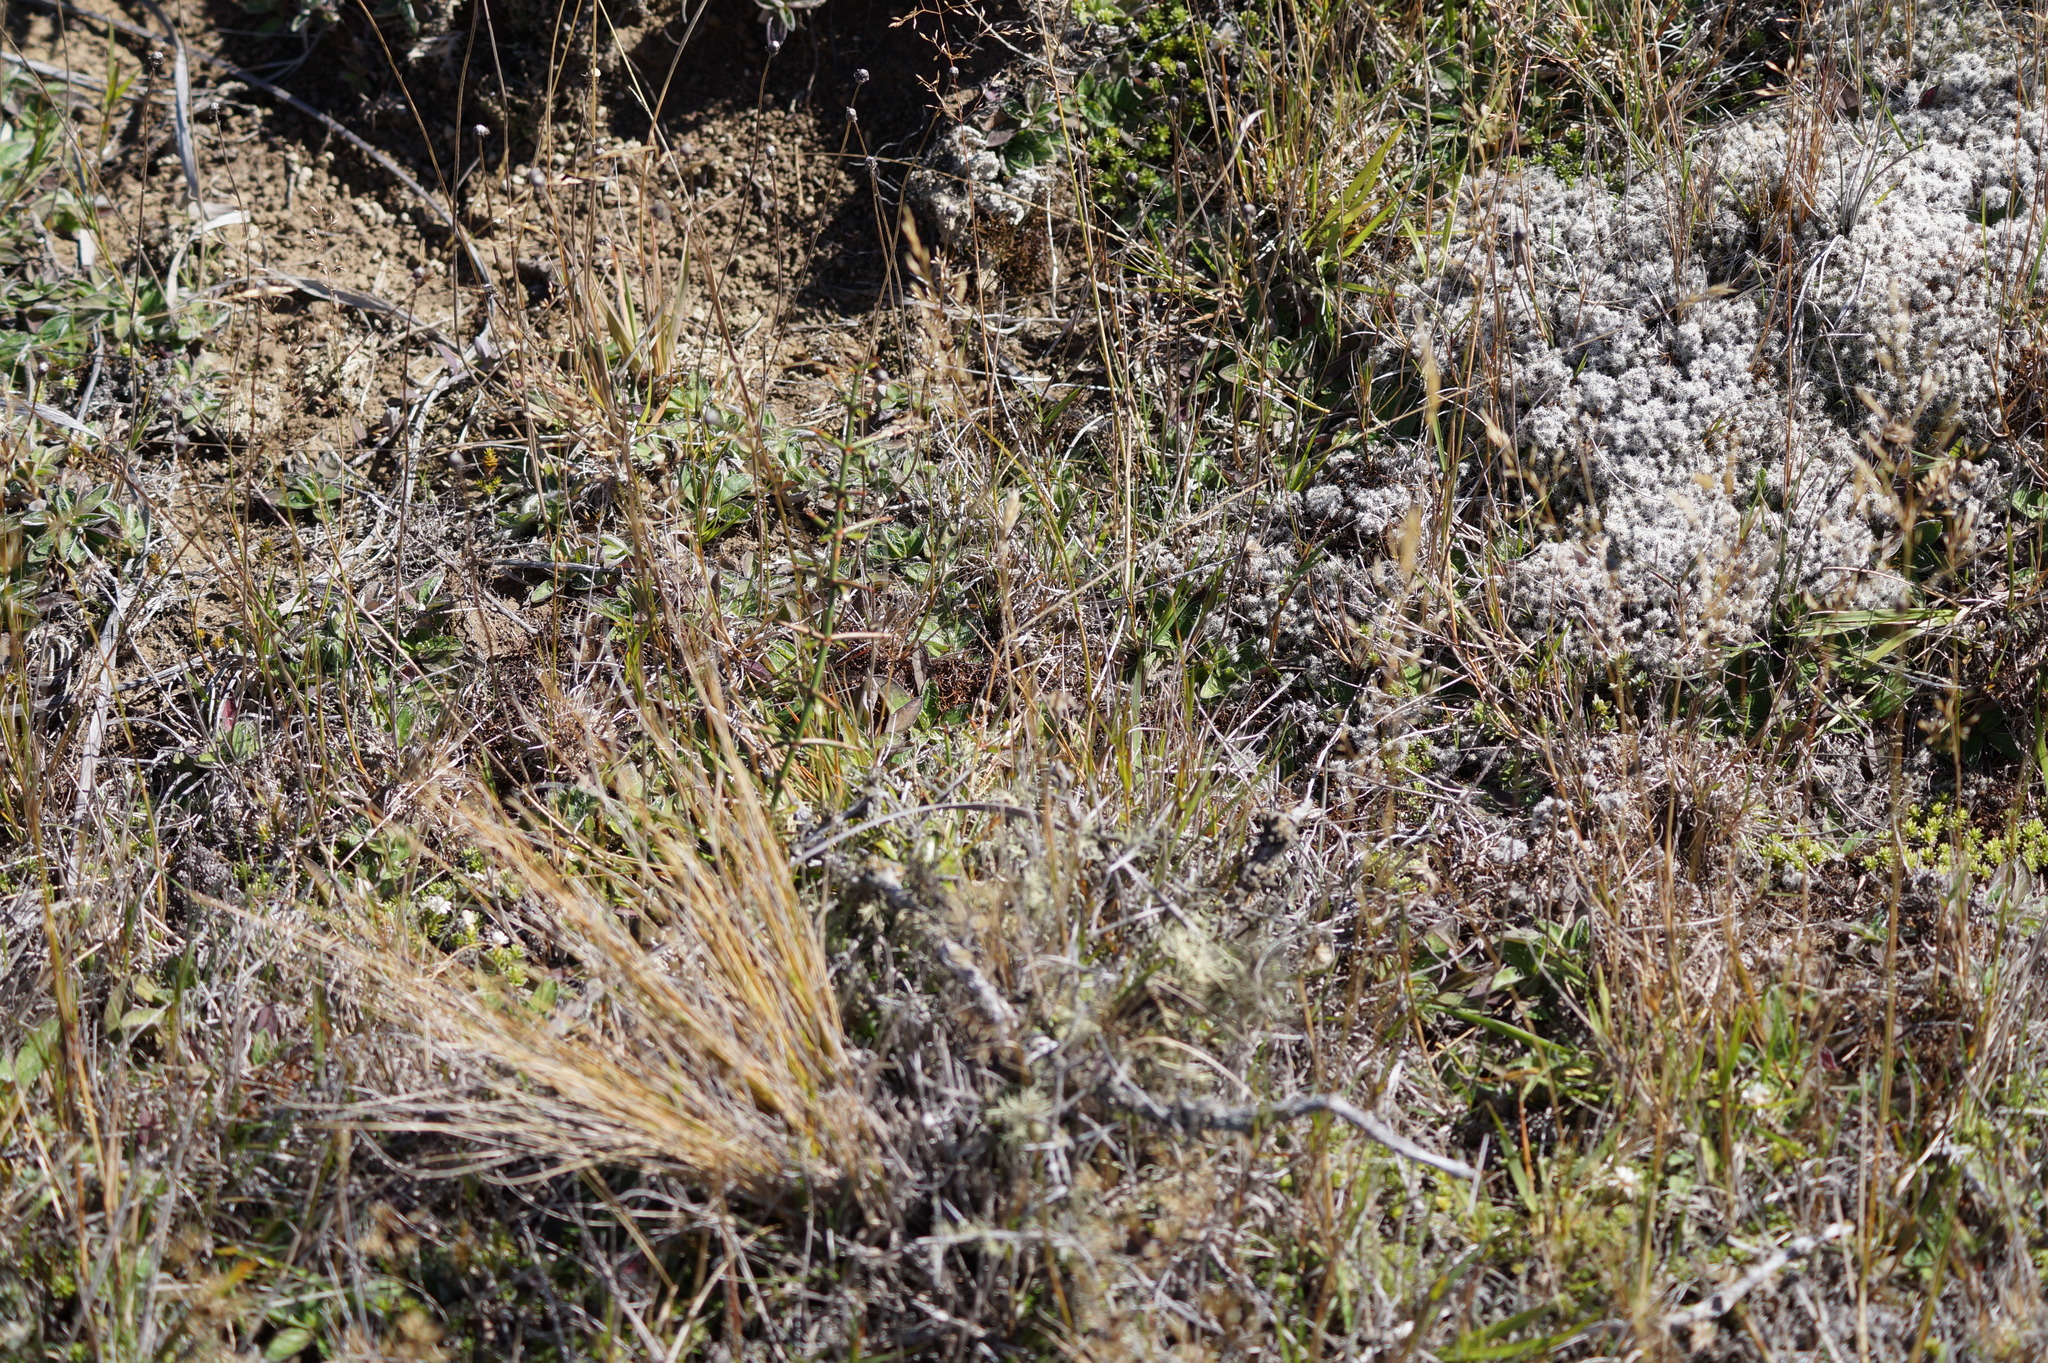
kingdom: Plantae
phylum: Tracheophyta
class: Magnoliopsida
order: Rosales
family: Rhamnaceae
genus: Discaria
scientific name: Discaria toumatou
